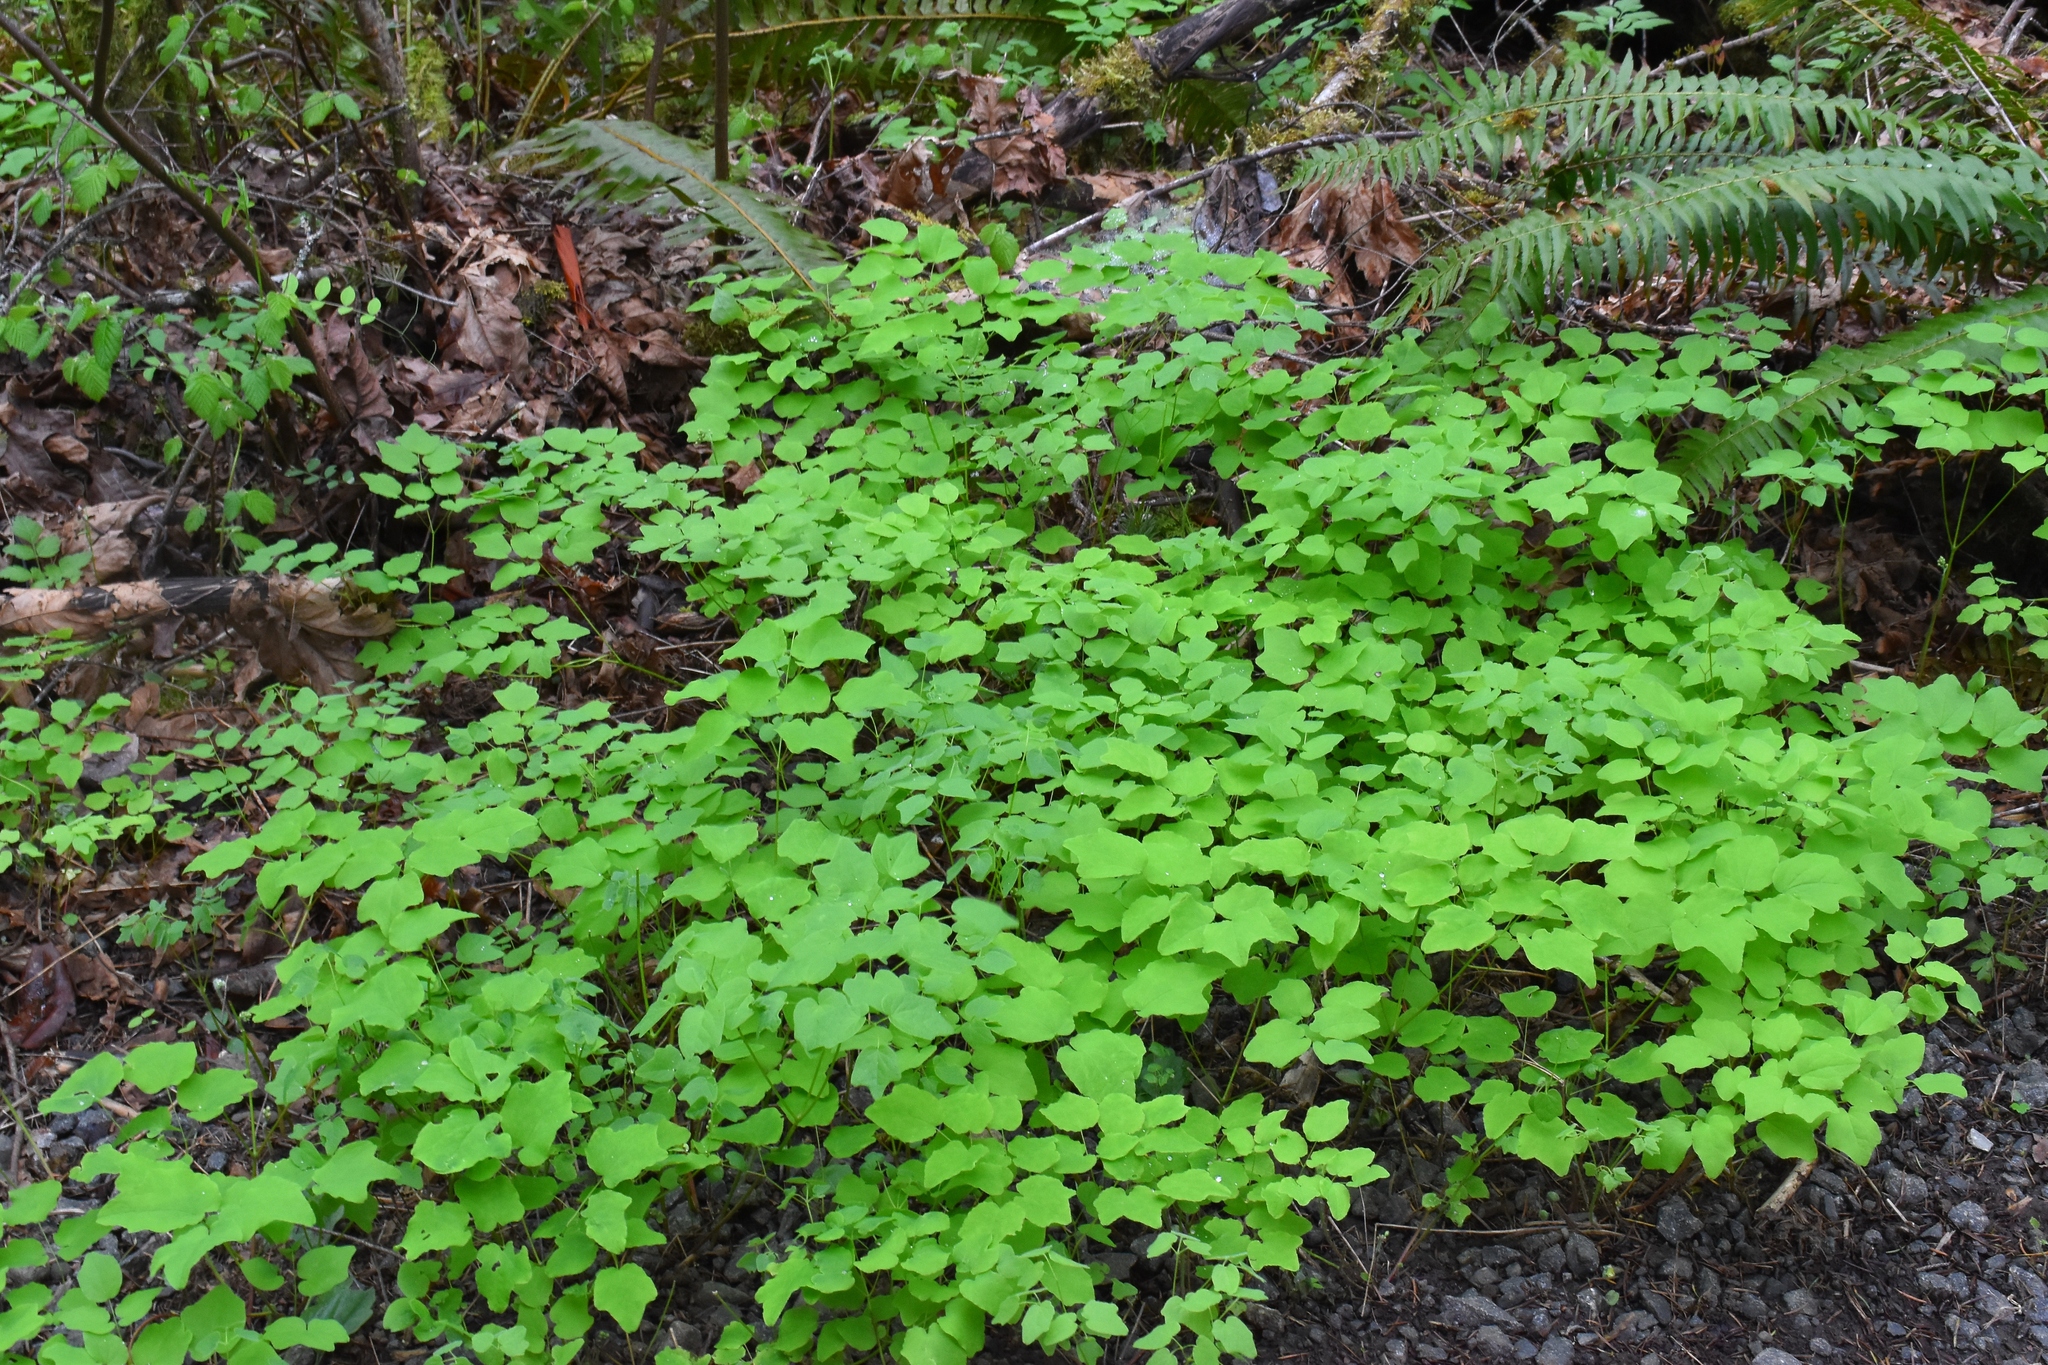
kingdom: Plantae
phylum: Tracheophyta
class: Magnoliopsida
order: Ranunculales
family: Berberidaceae
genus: Vancouveria
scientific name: Vancouveria hexandra
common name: Northern inside-out-flower
